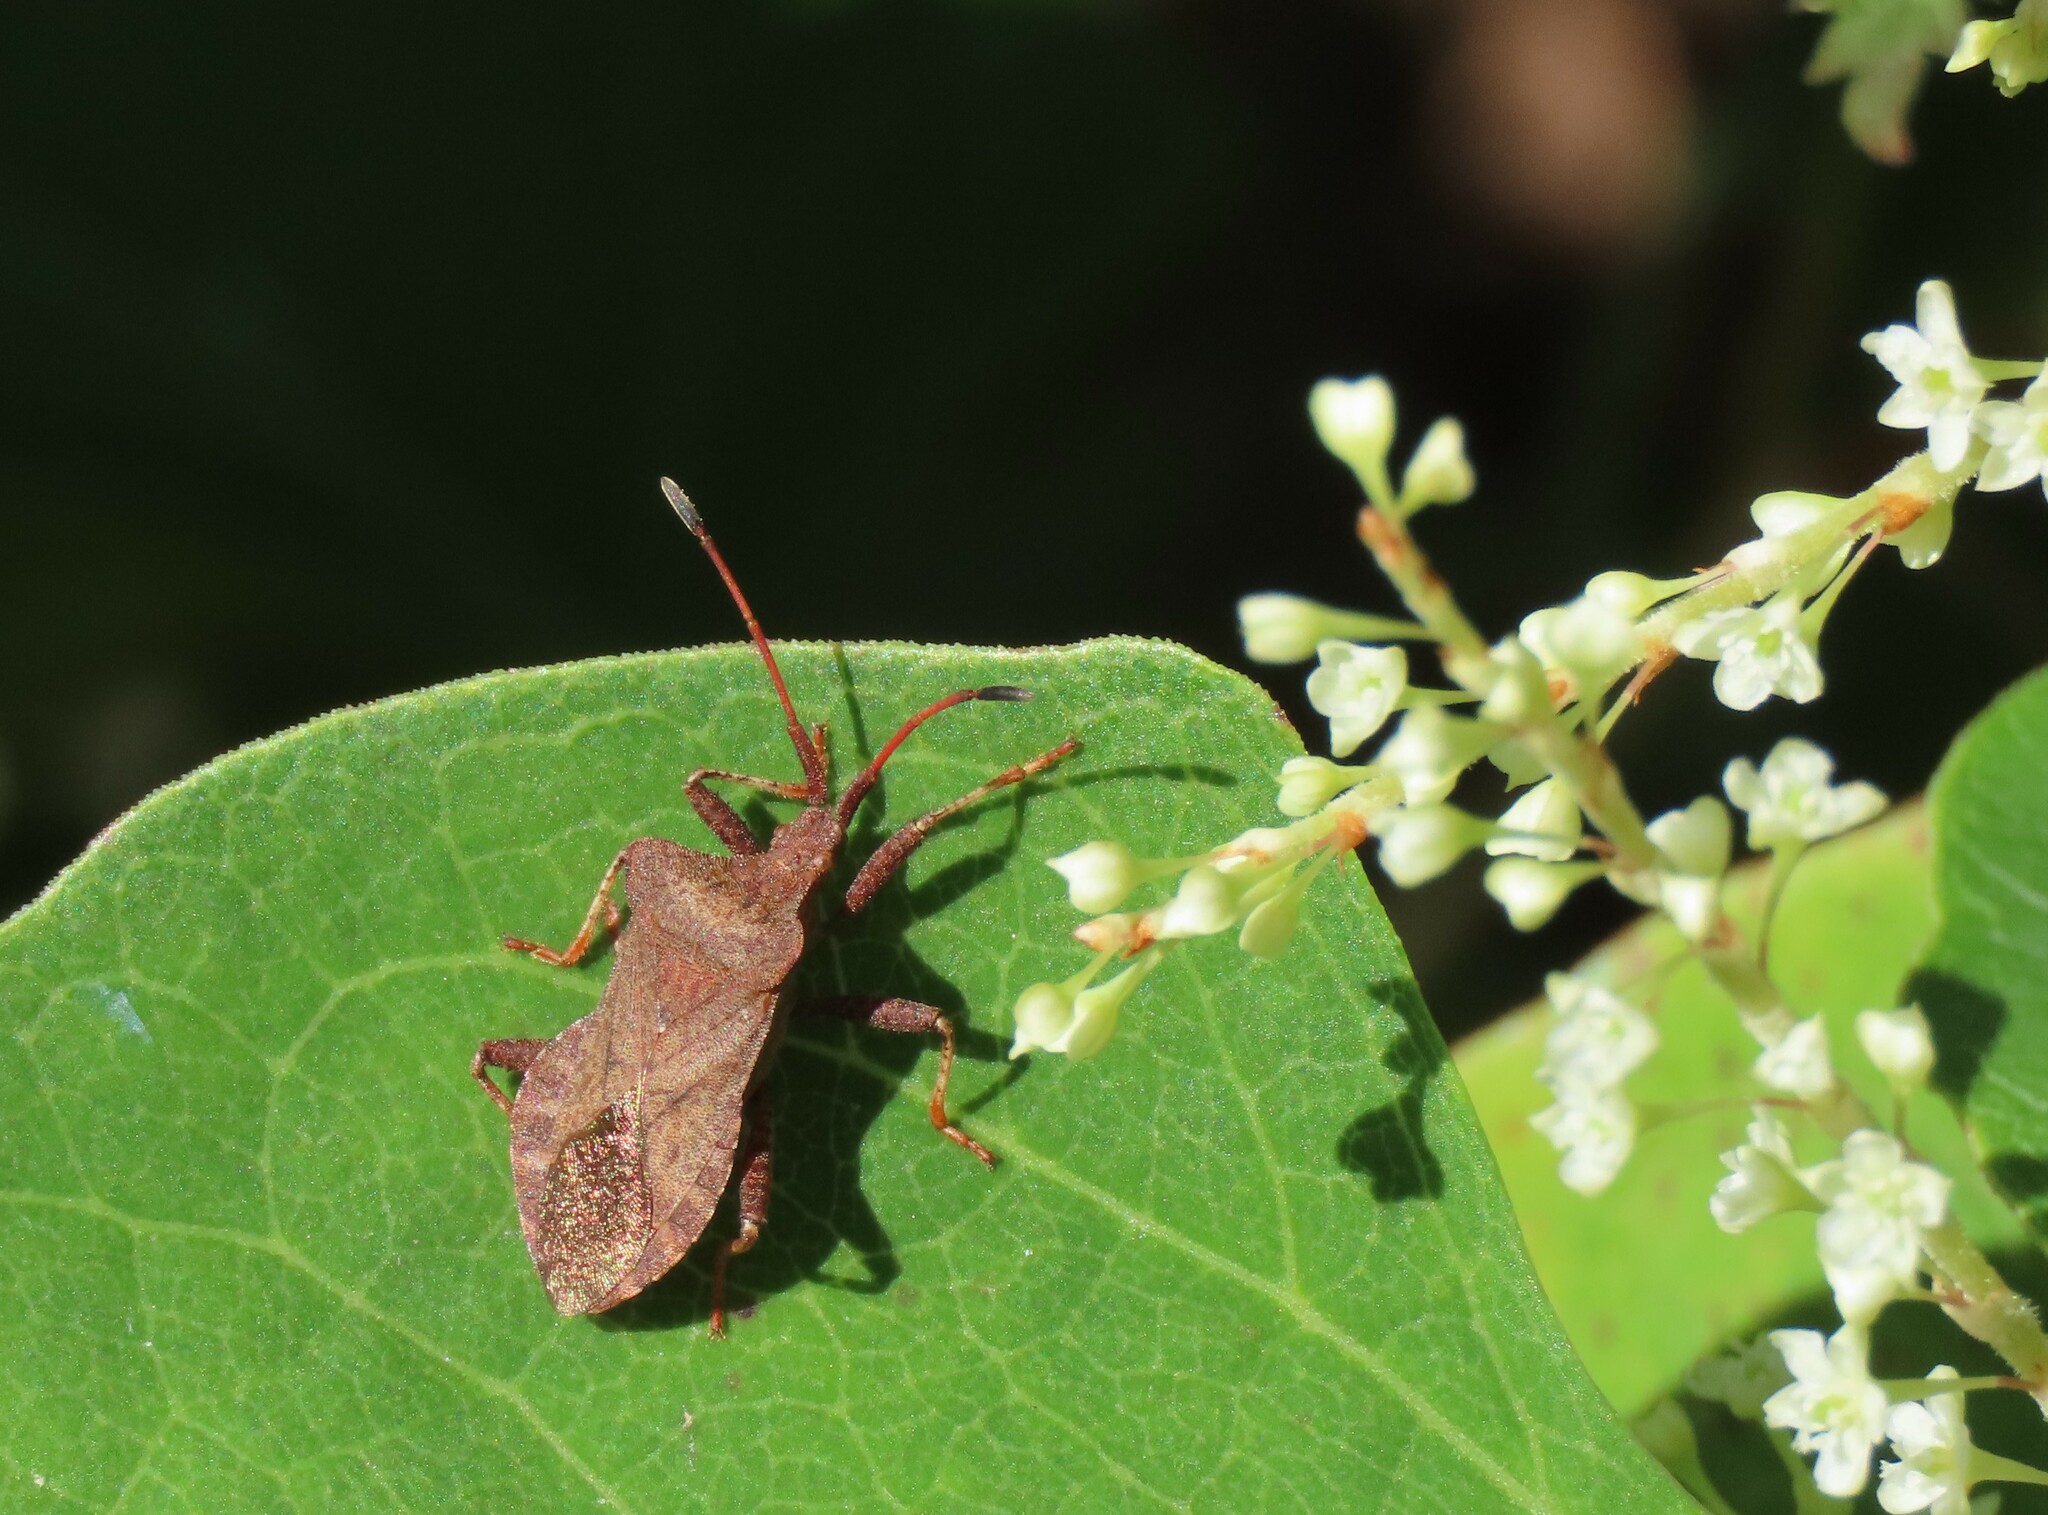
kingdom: Animalia
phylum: Arthropoda
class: Insecta
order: Hemiptera
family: Coreidae
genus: Coreus
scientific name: Coreus marginatus
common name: Dock bug
